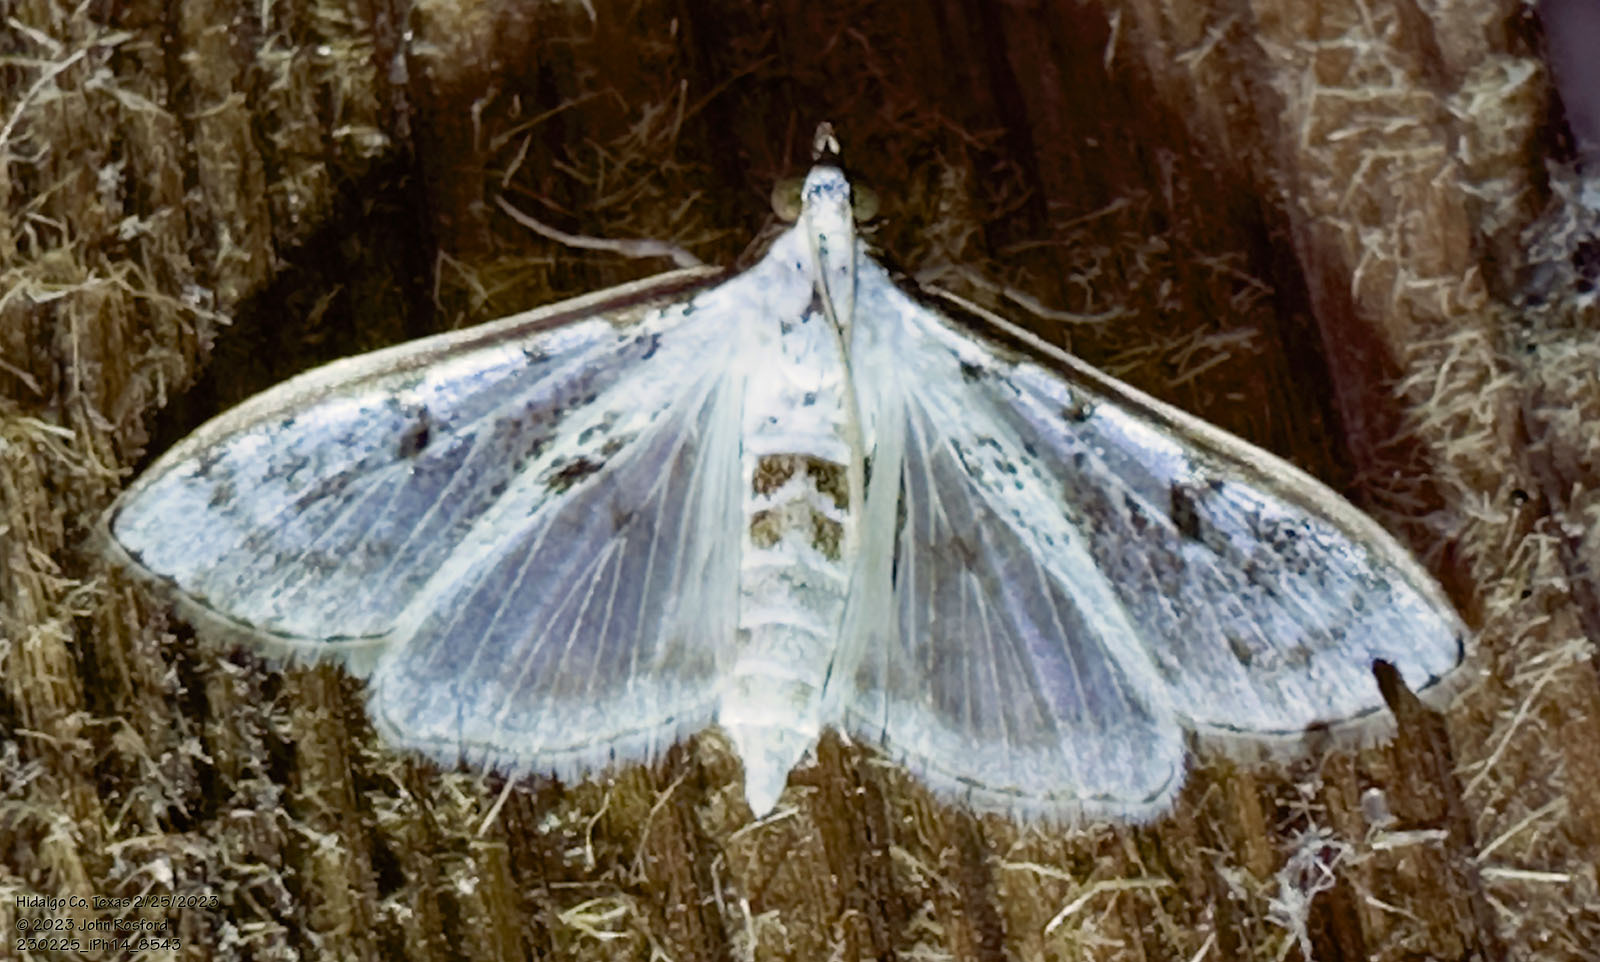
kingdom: Animalia
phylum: Arthropoda
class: Insecta
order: Lepidoptera
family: Crambidae
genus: Palpita
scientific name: Palpita gracilalis
